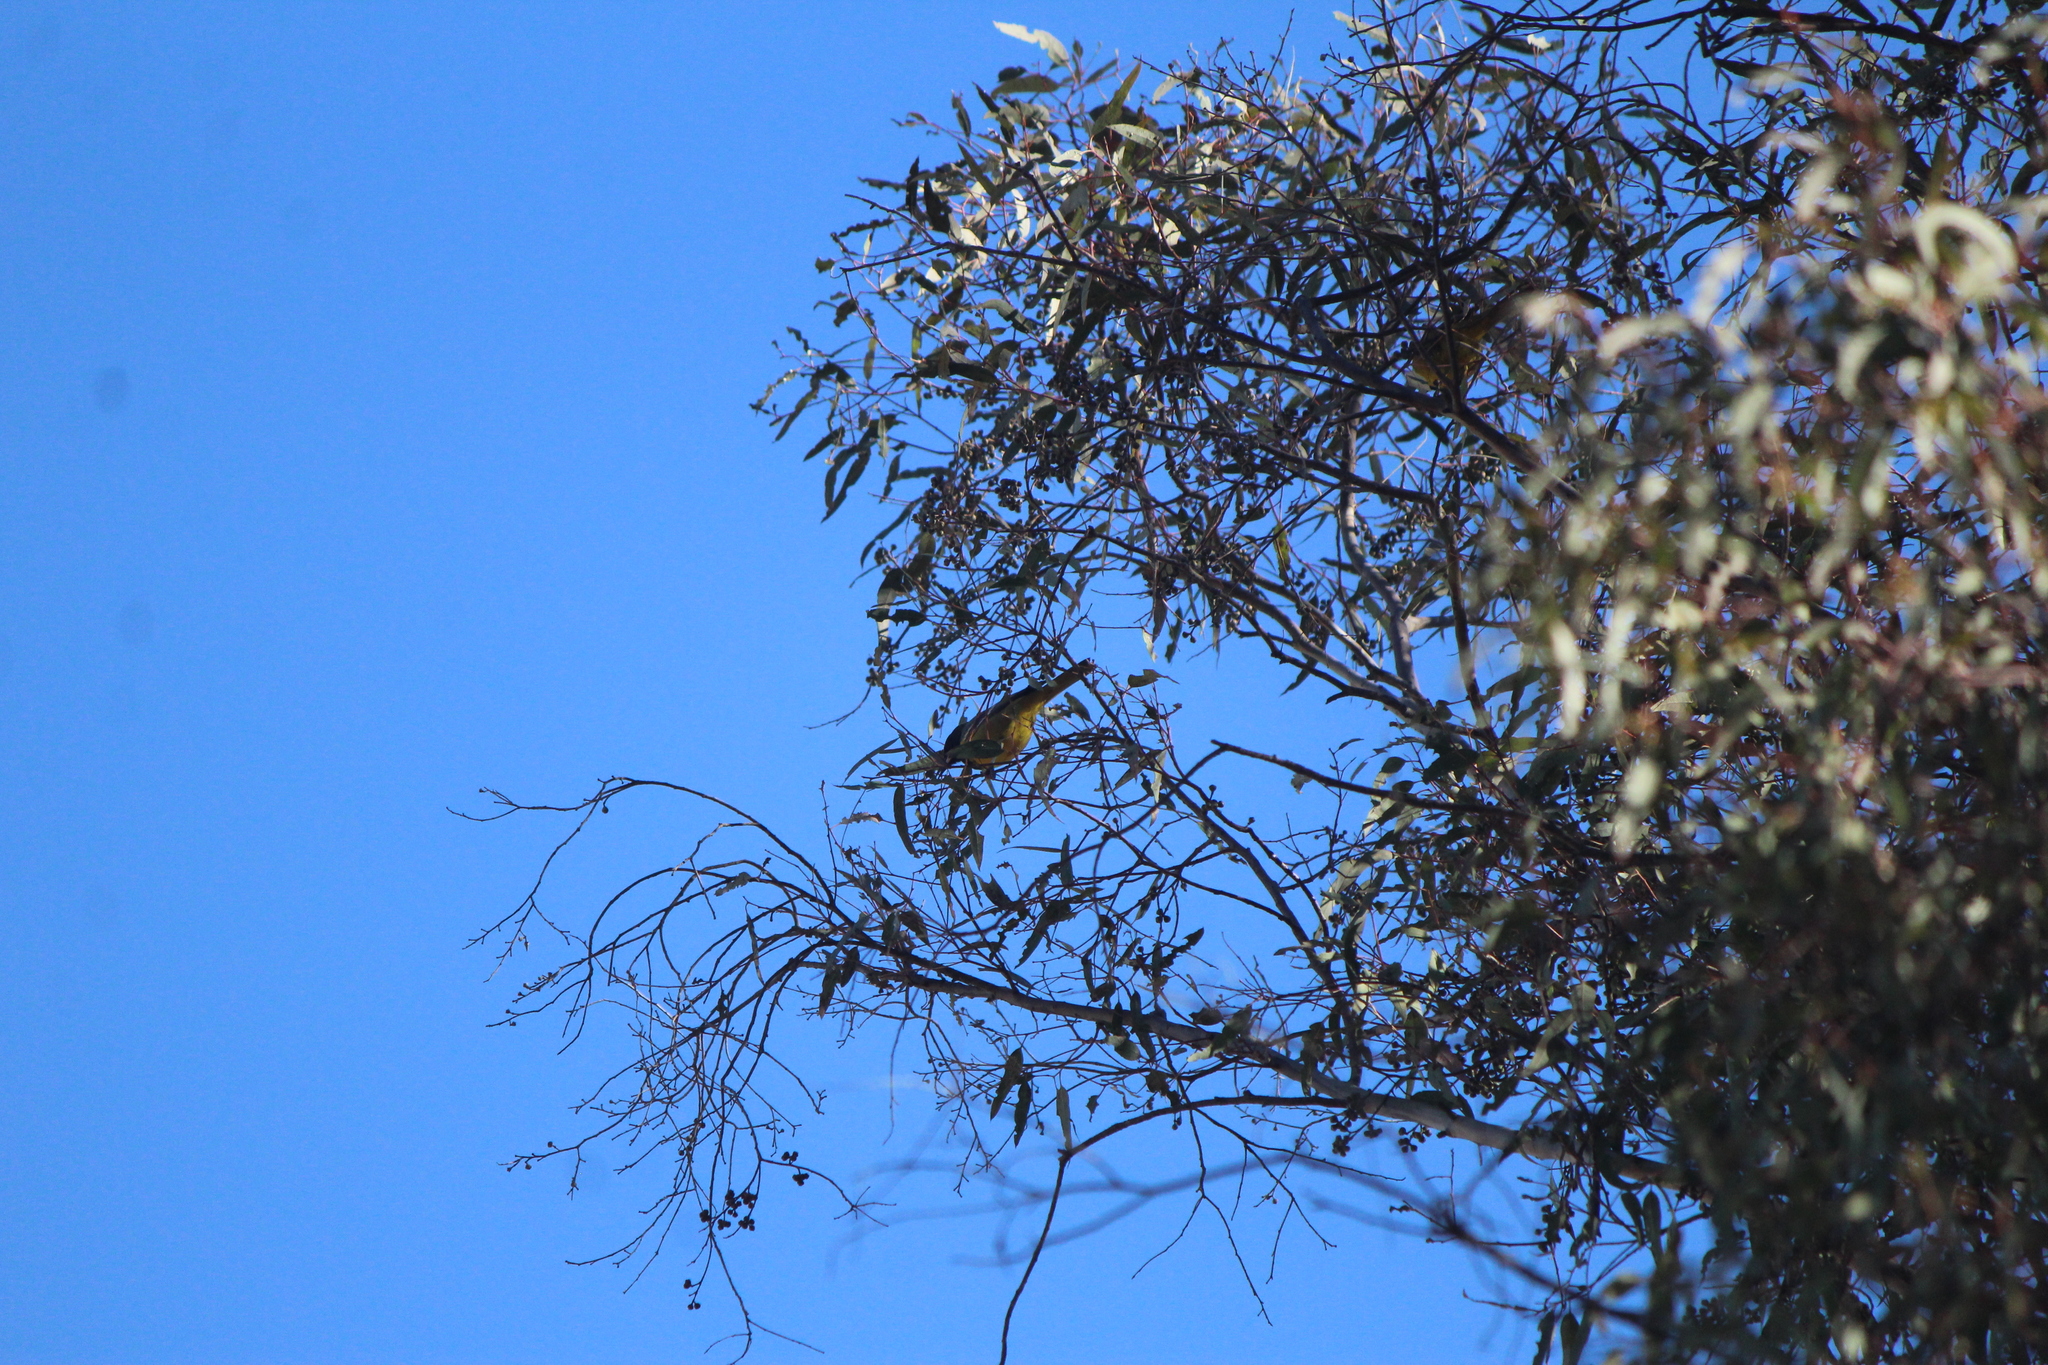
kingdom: Animalia
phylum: Chordata
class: Aves
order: Passeriformes
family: Icteridae
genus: Icterus
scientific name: Icterus parisorum
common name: Scott's oriole
